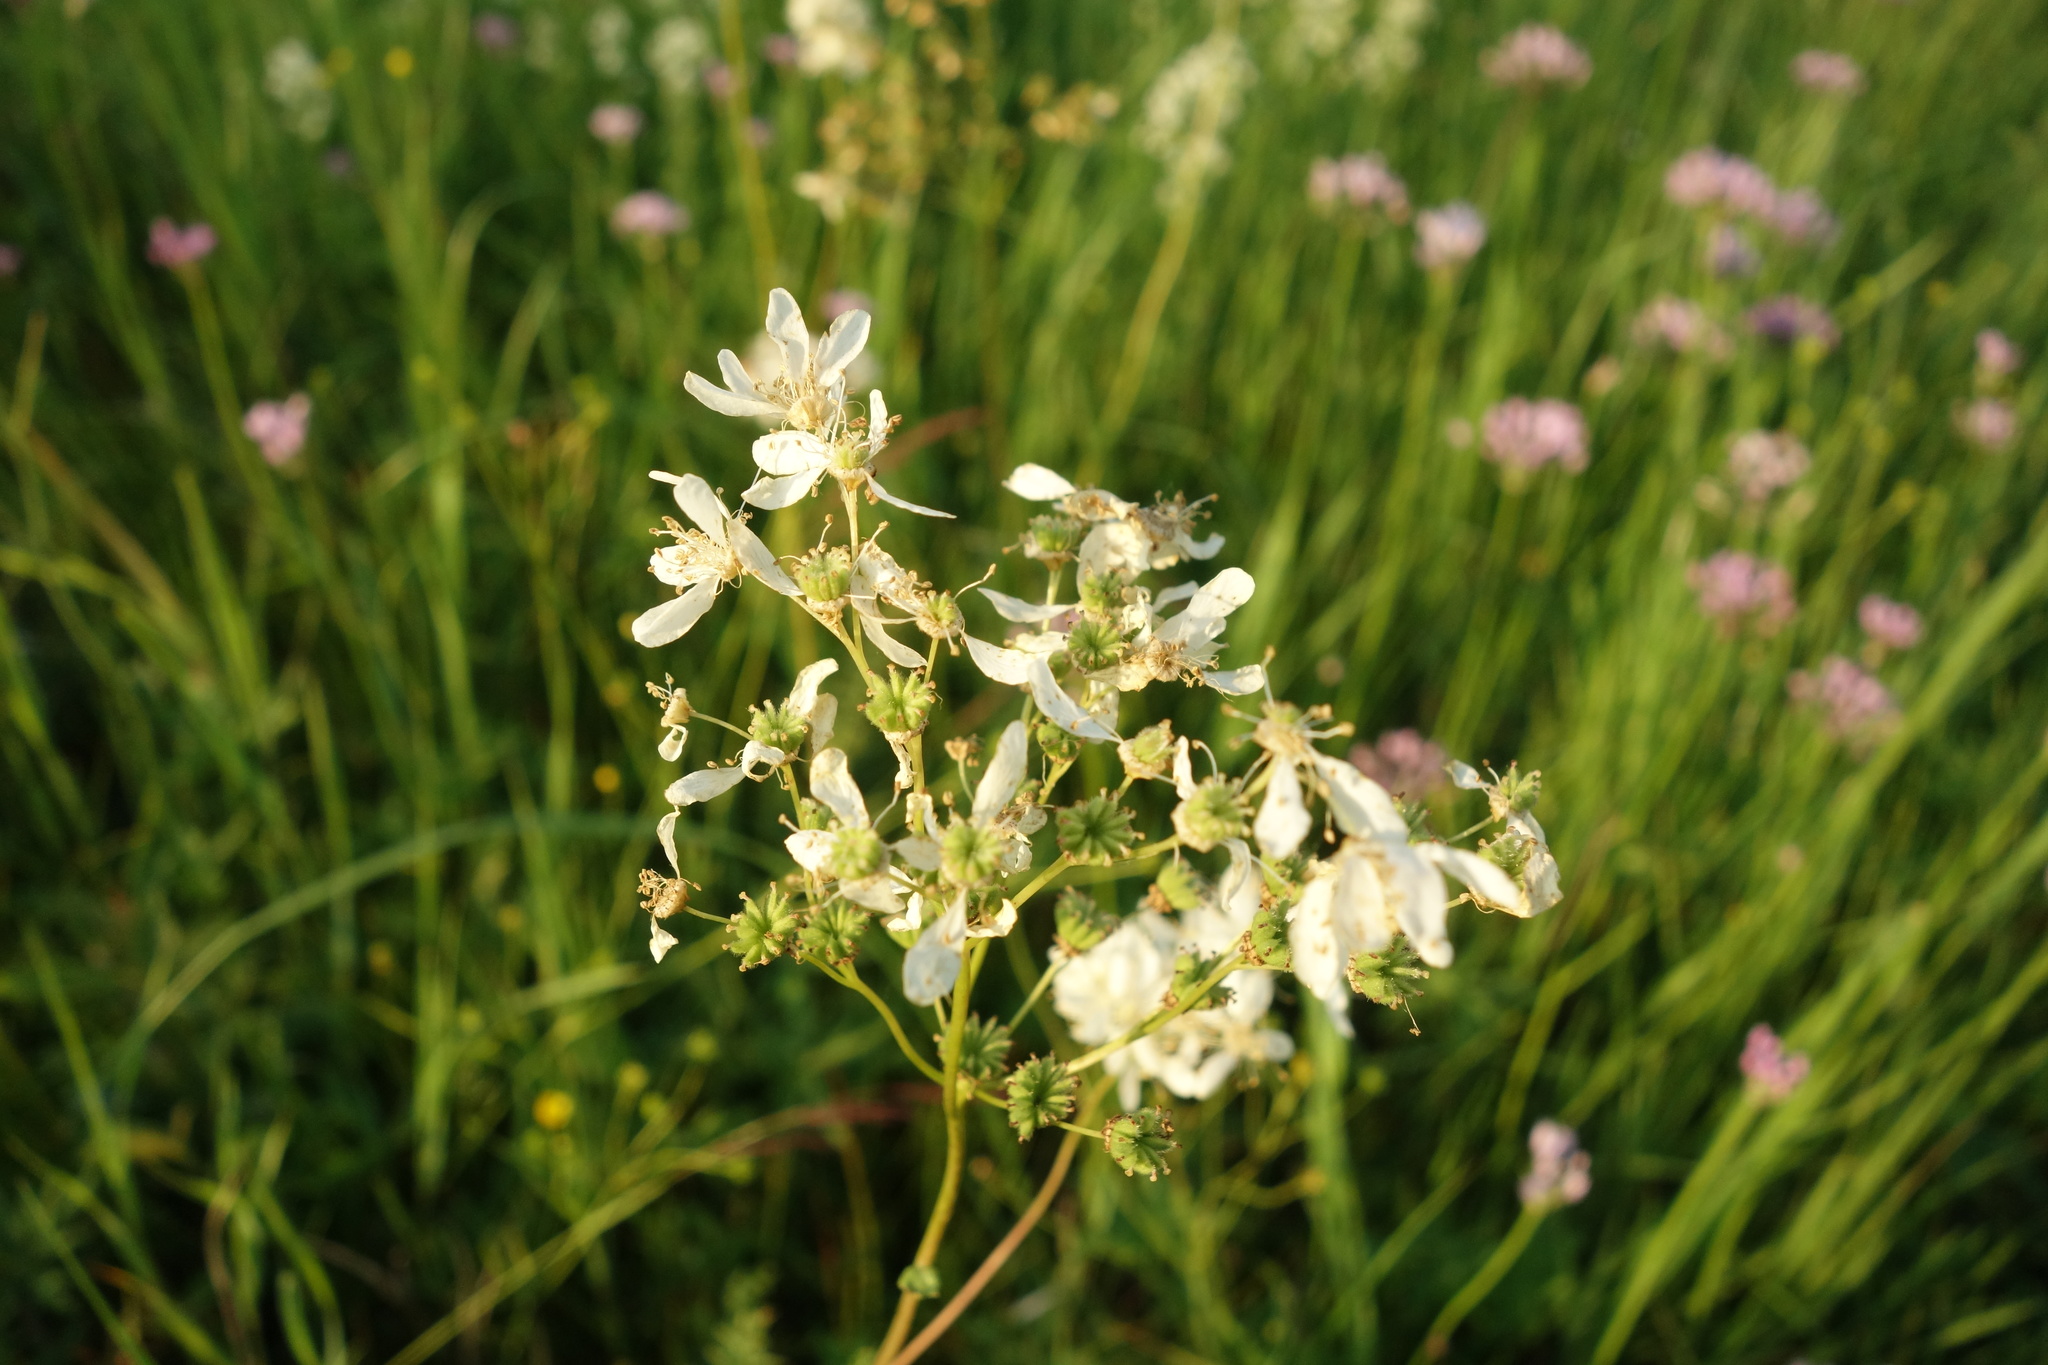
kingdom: Plantae
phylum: Tracheophyta
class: Magnoliopsida
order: Rosales
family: Rosaceae
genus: Filipendula
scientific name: Filipendula vulgaris
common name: Dropwort
